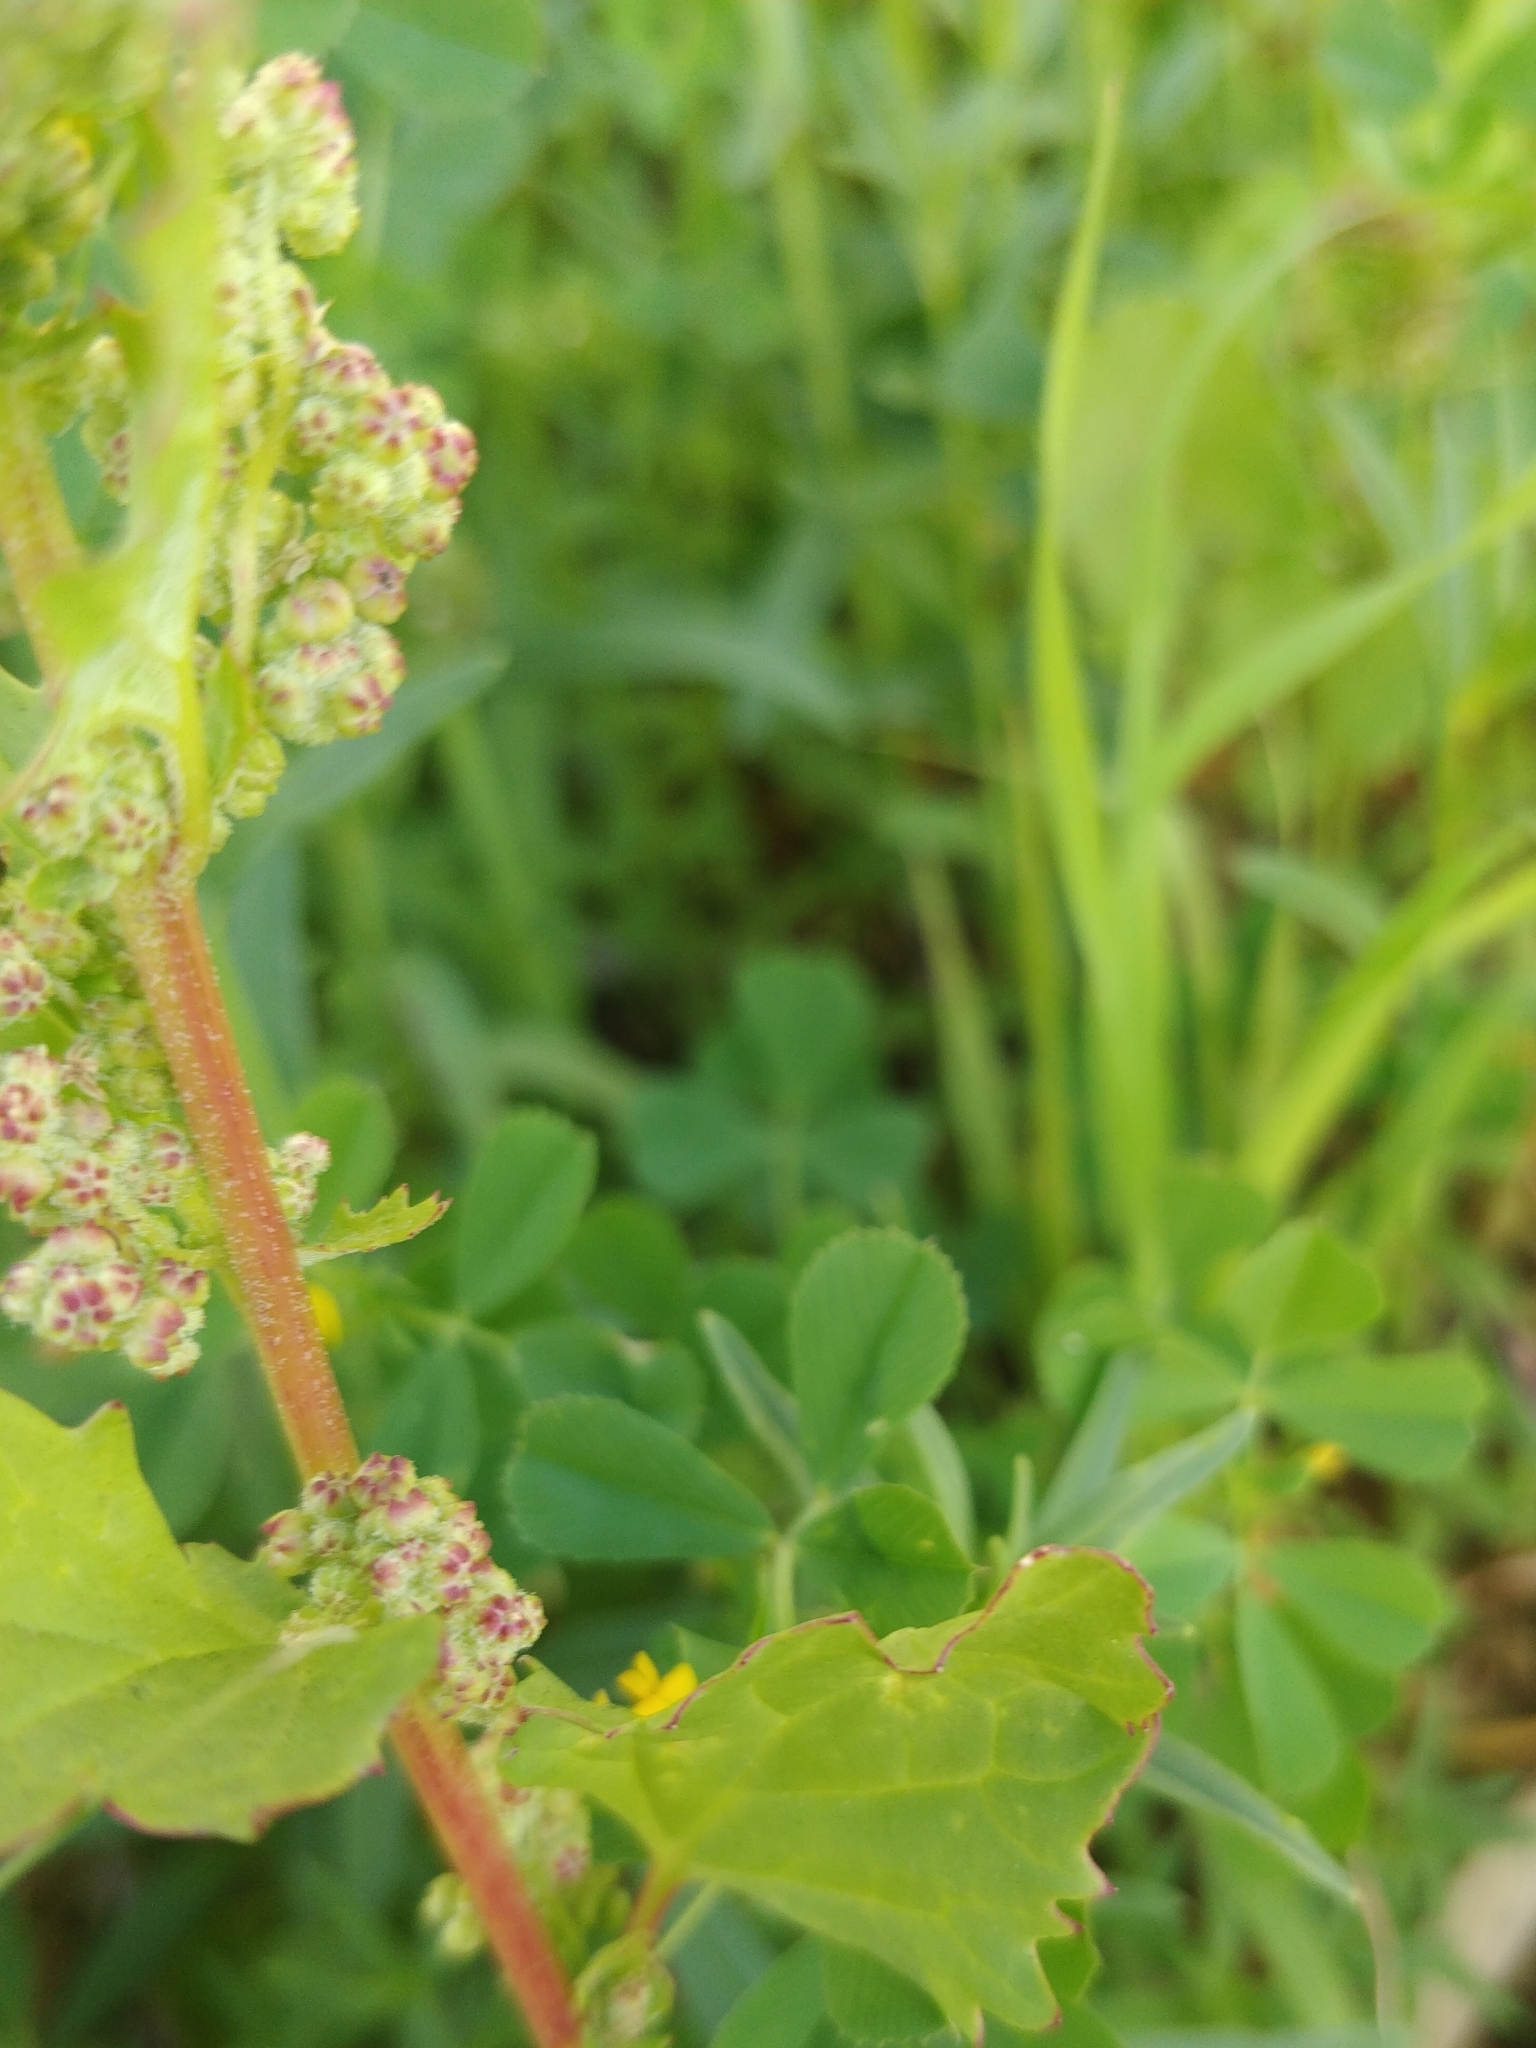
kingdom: Plantae
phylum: Tracheophyta
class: Magnoliopsida
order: Caryophyllales
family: Amaranthaceae
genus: Chenopodiastrum
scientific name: Chenopodiastrum murale
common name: Sowbane
